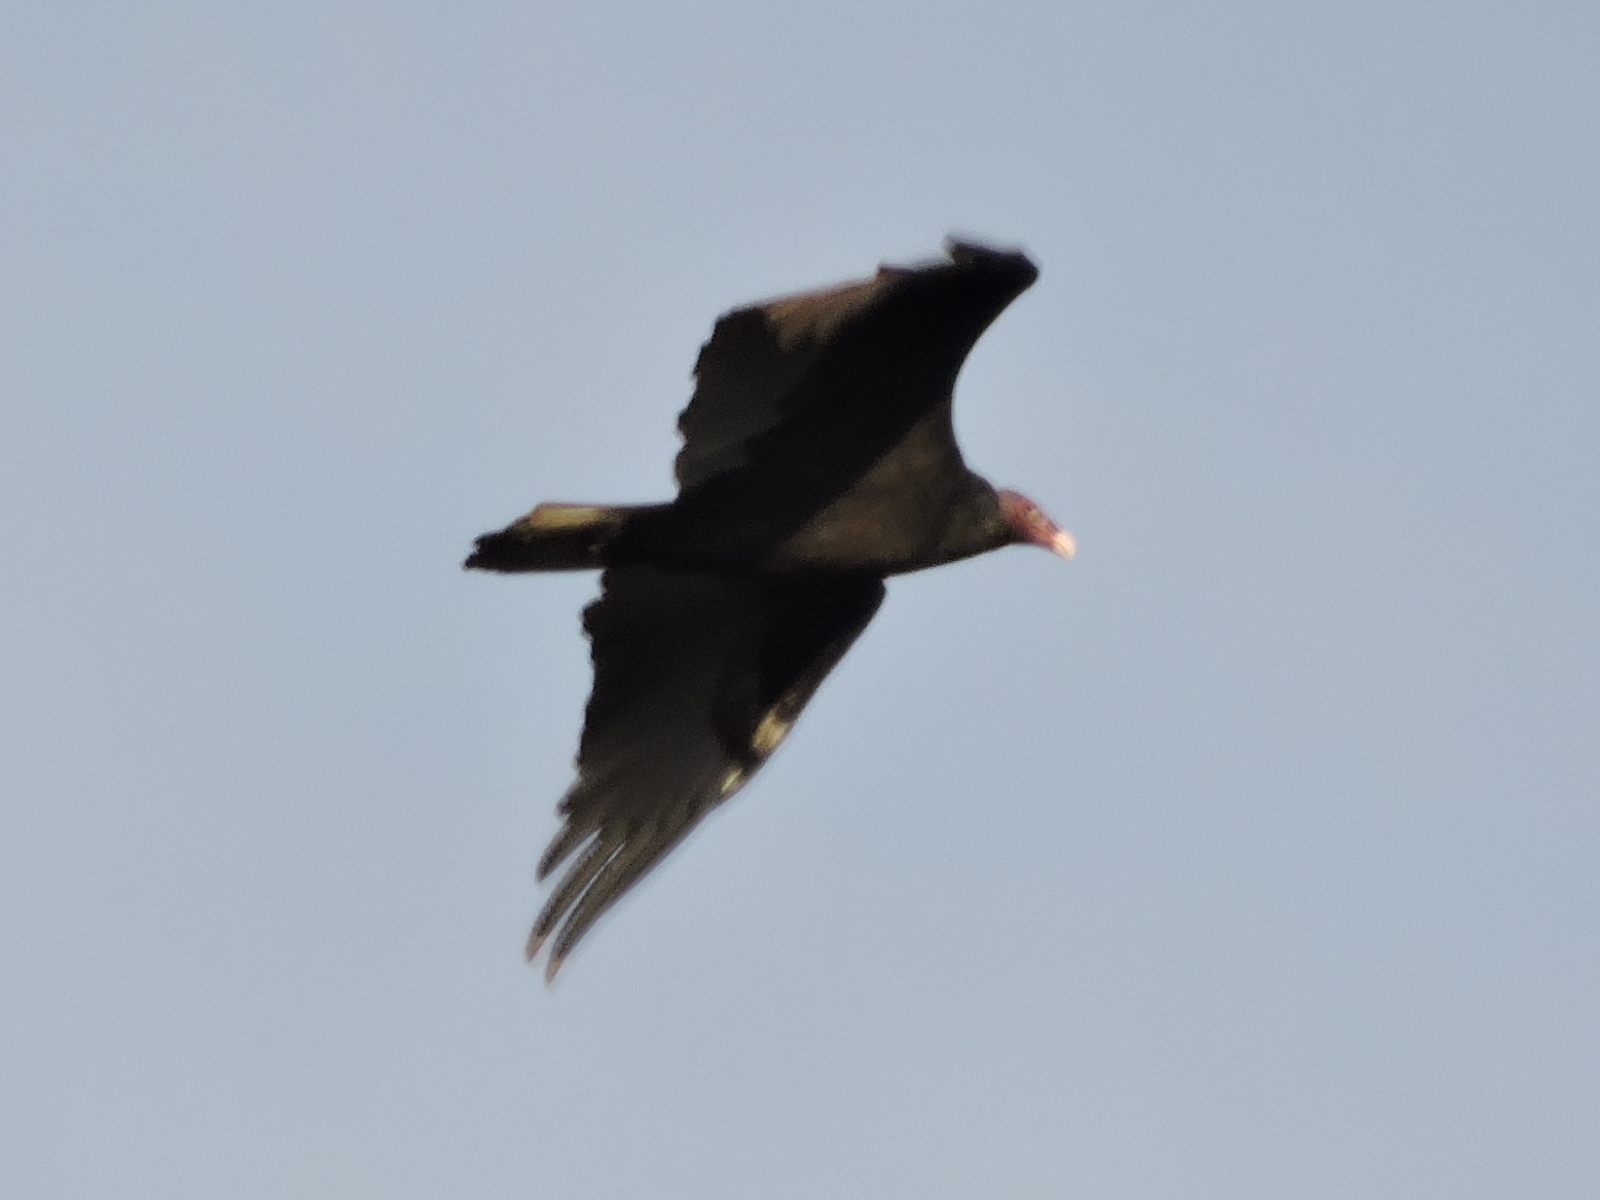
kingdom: Animalia
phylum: Chordata
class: Aves
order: Accipitriformes
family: Cathartidae
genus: Cathartes
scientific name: Cathartes aura
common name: Turkey vulture
